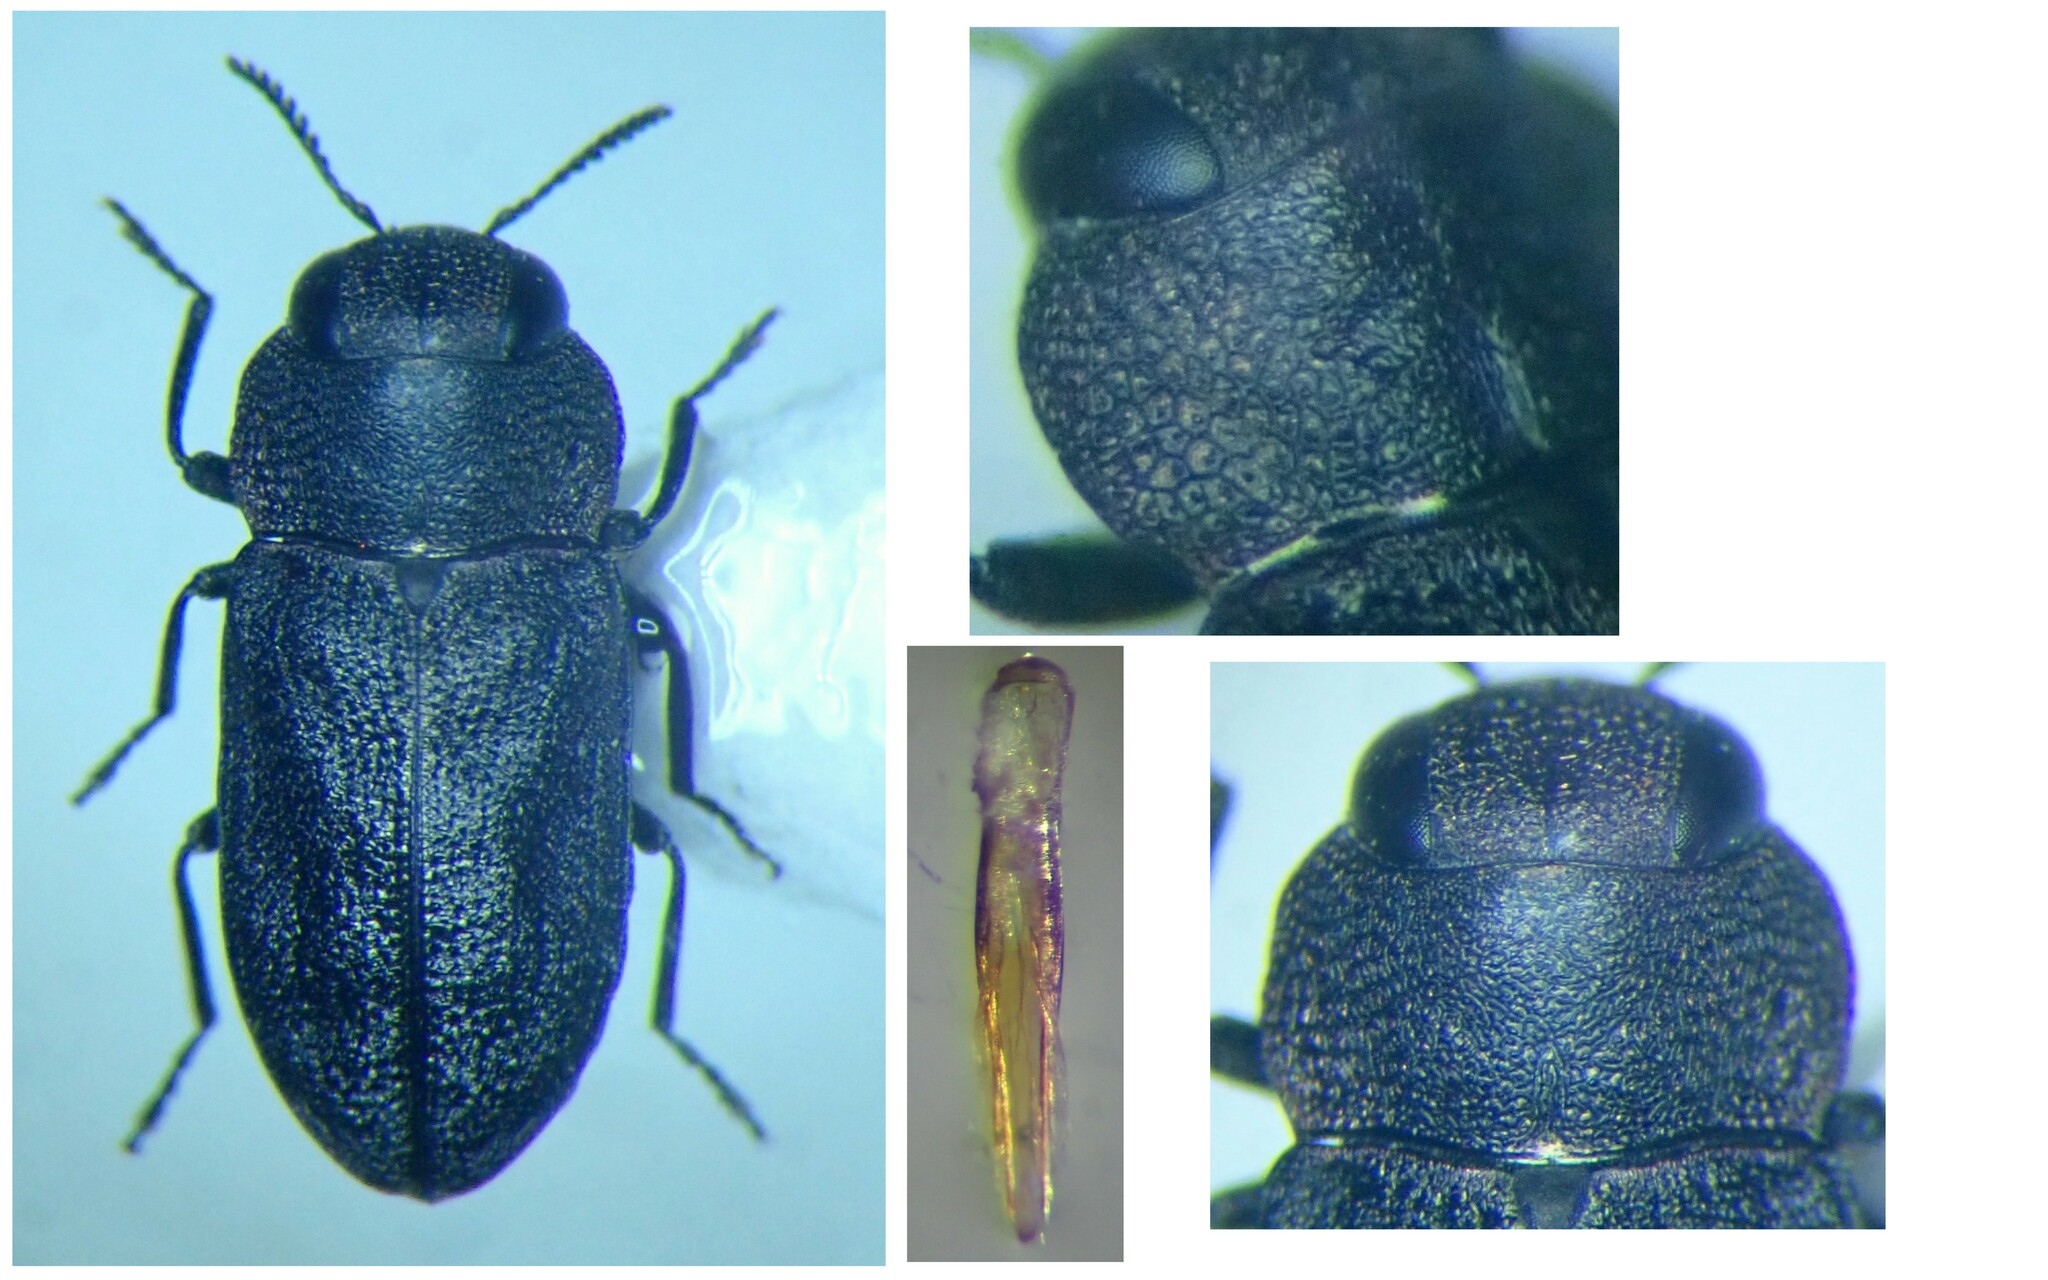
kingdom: Animalia
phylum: Arthropoda
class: Insecta
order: Coleoptera
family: Buprestidae
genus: Anthaxia
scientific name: Anthaxia nigritula
